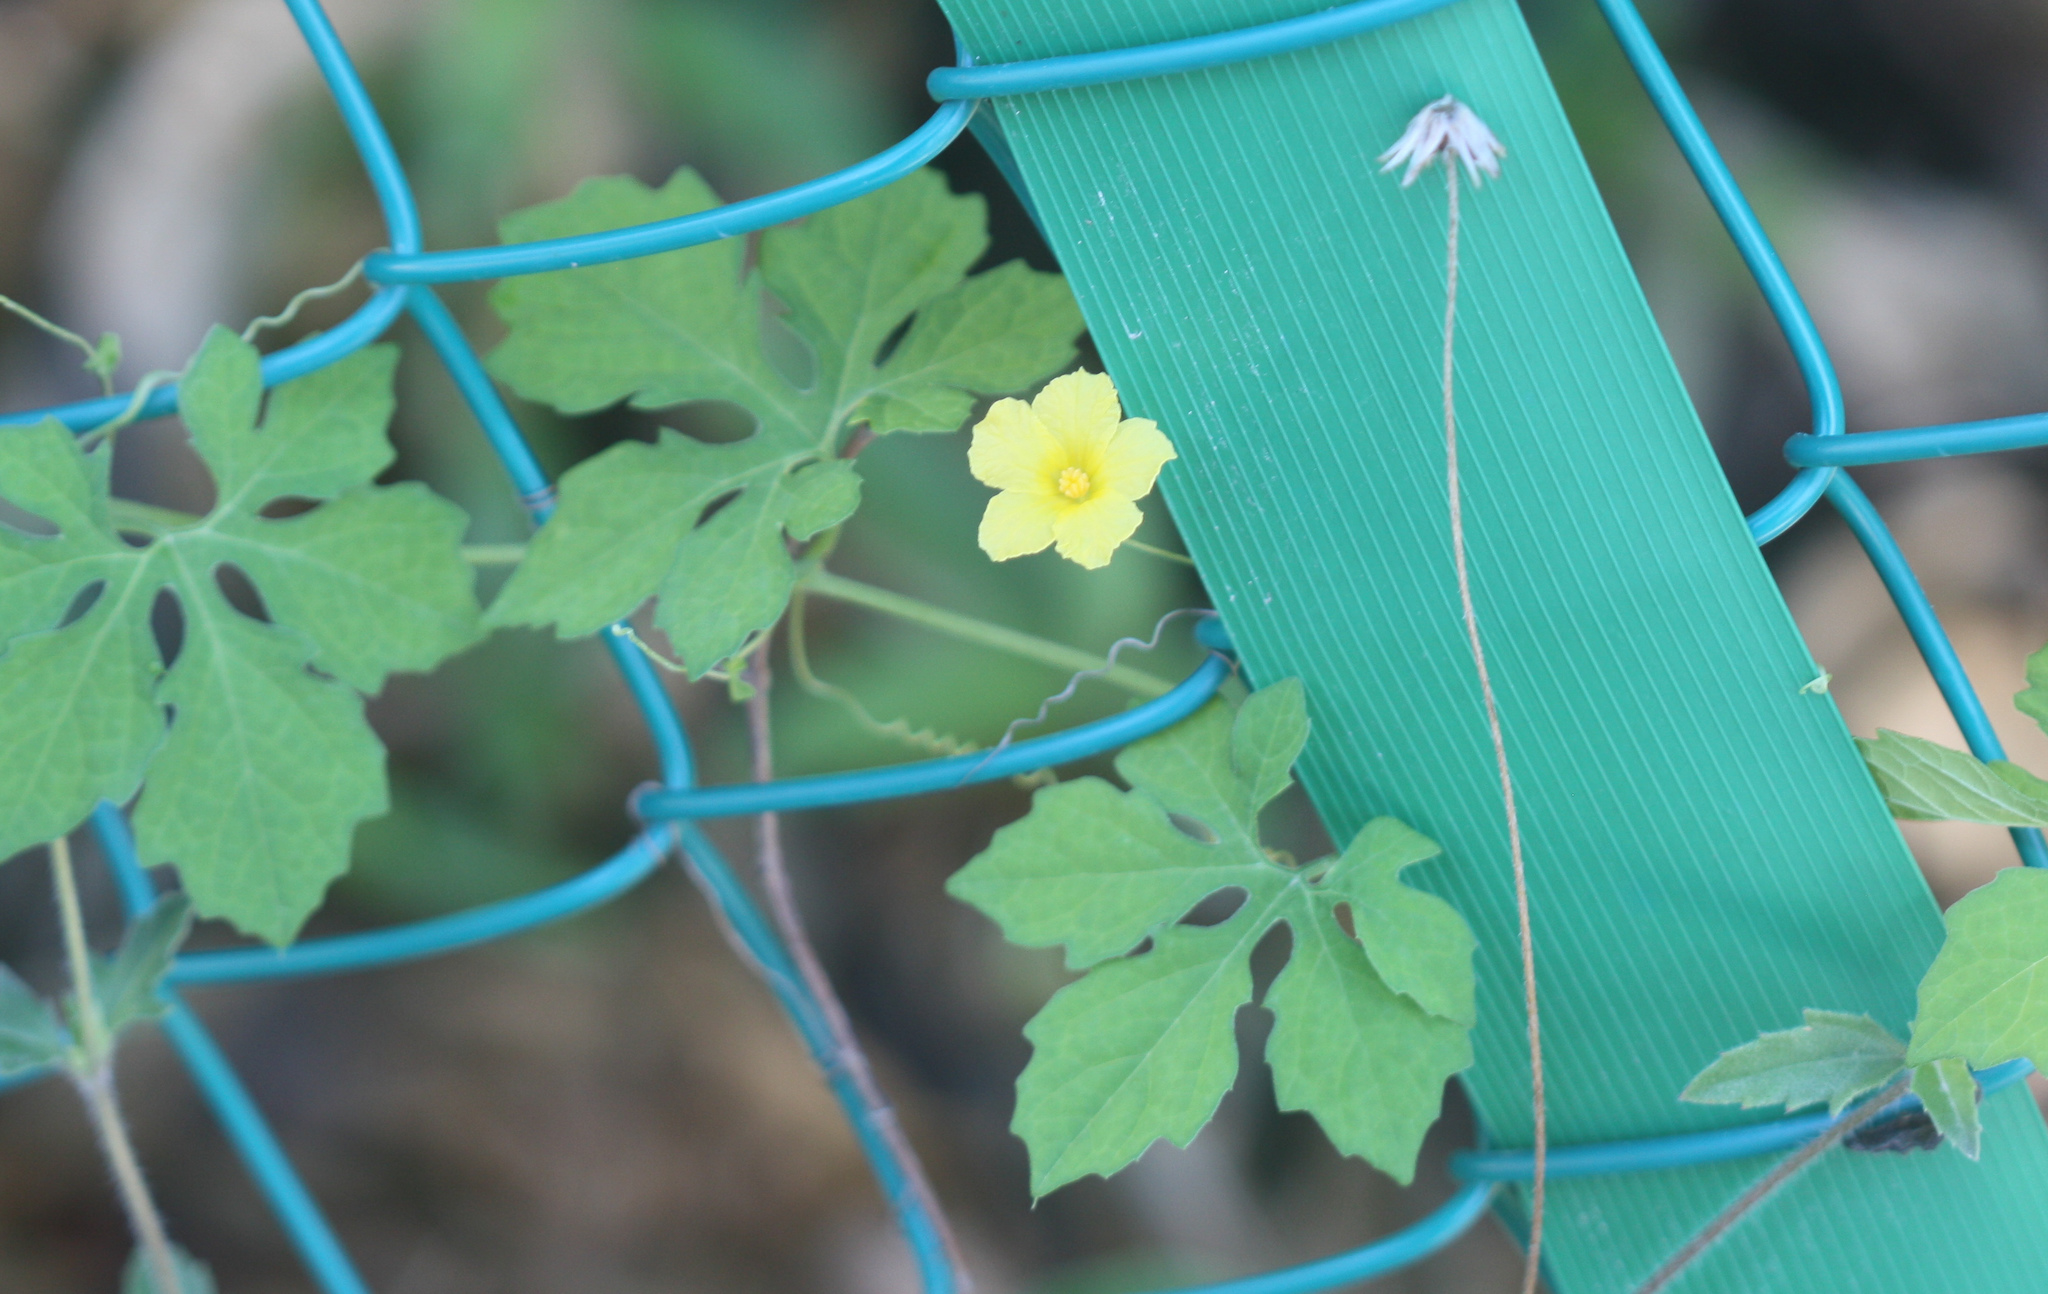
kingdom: Plantae
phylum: Tracheophyta
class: Magnoliopsida
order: Cucurbitales
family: Cucurbitaceae
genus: Momordica
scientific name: Momordica charantia
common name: Balsampear
